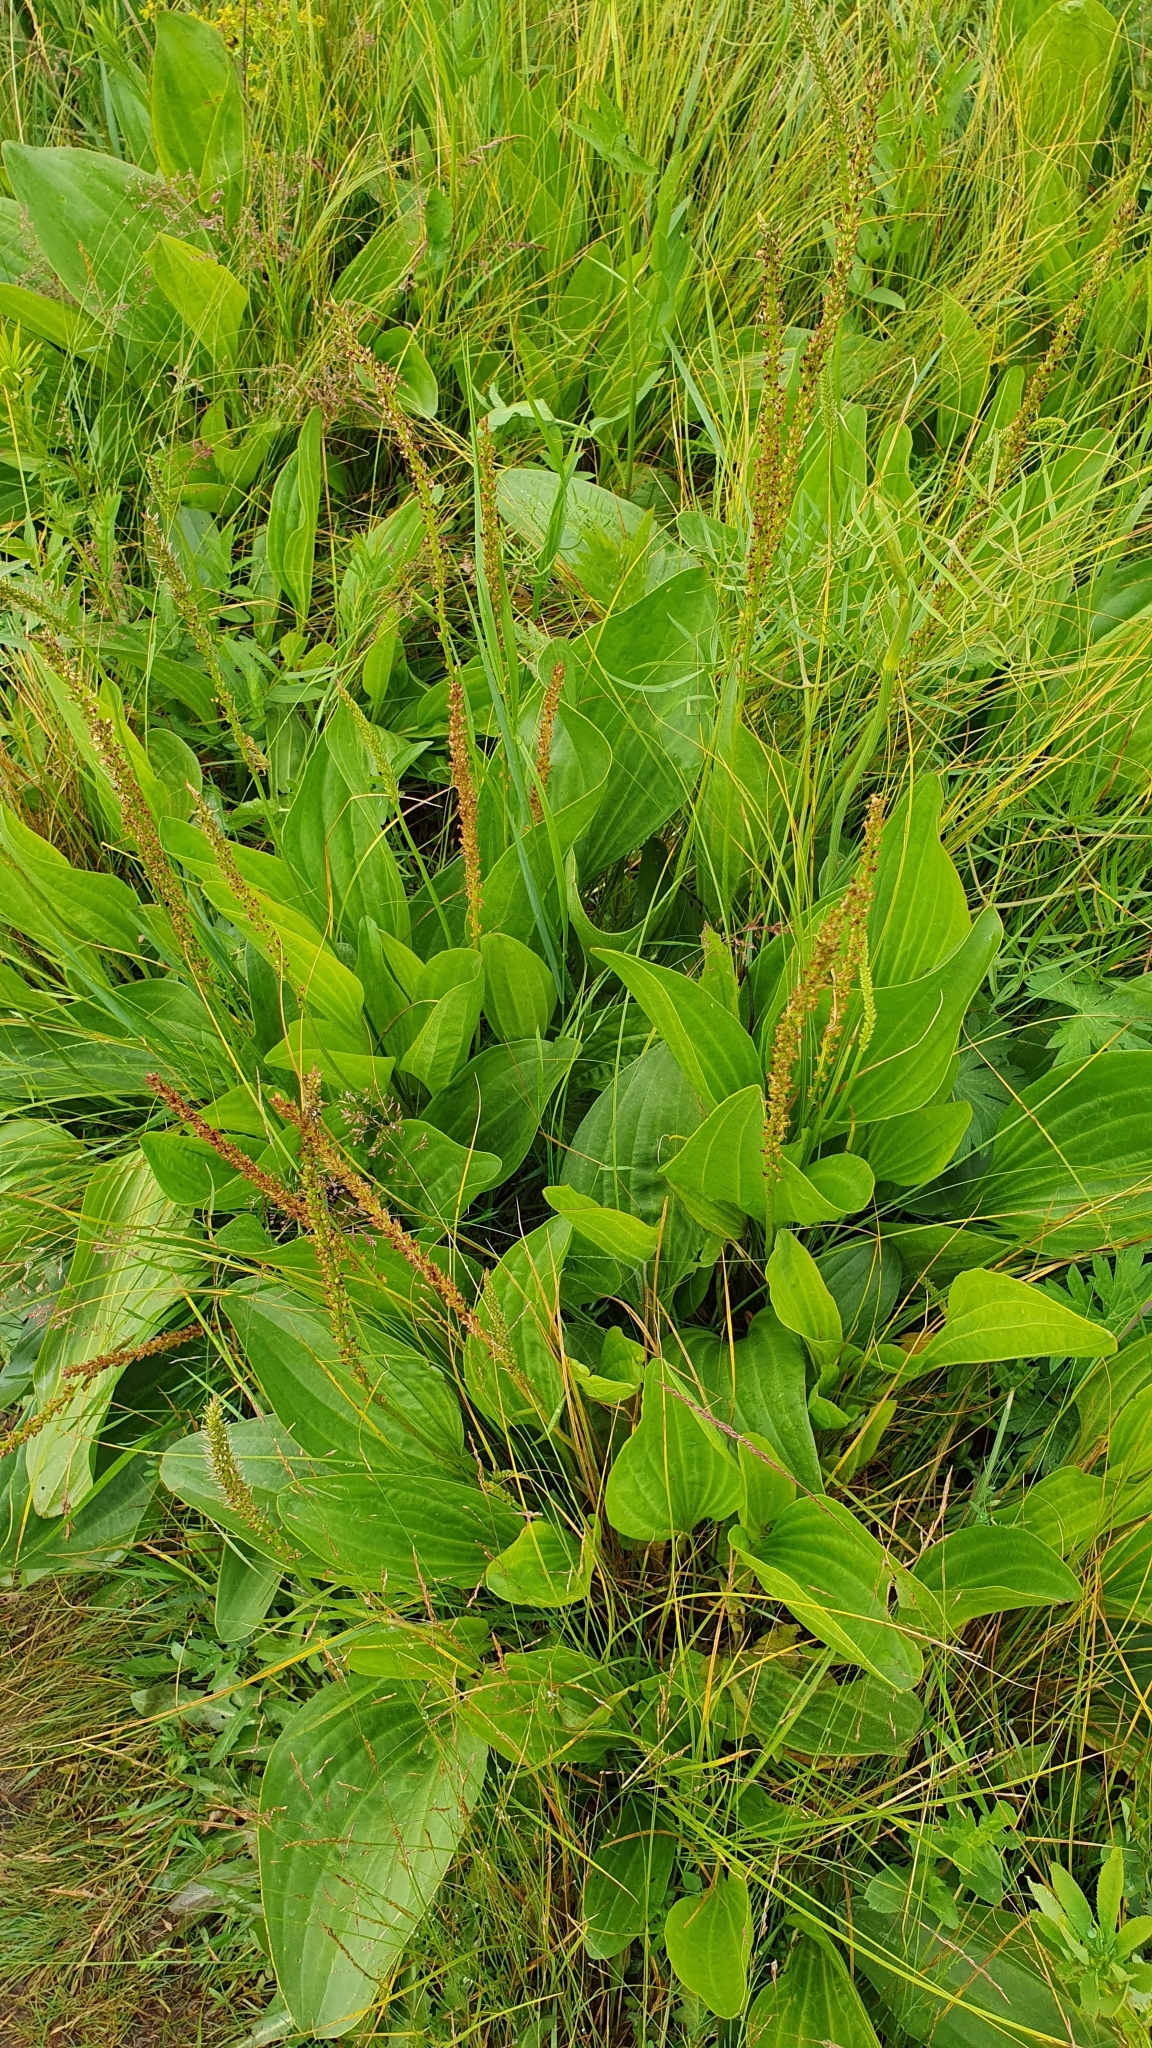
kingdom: Plantae
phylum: Tracheophyta
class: Magnoliopsida
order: Lamiales
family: Plantaginaceae
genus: Plantago
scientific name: Plantago cornuti
